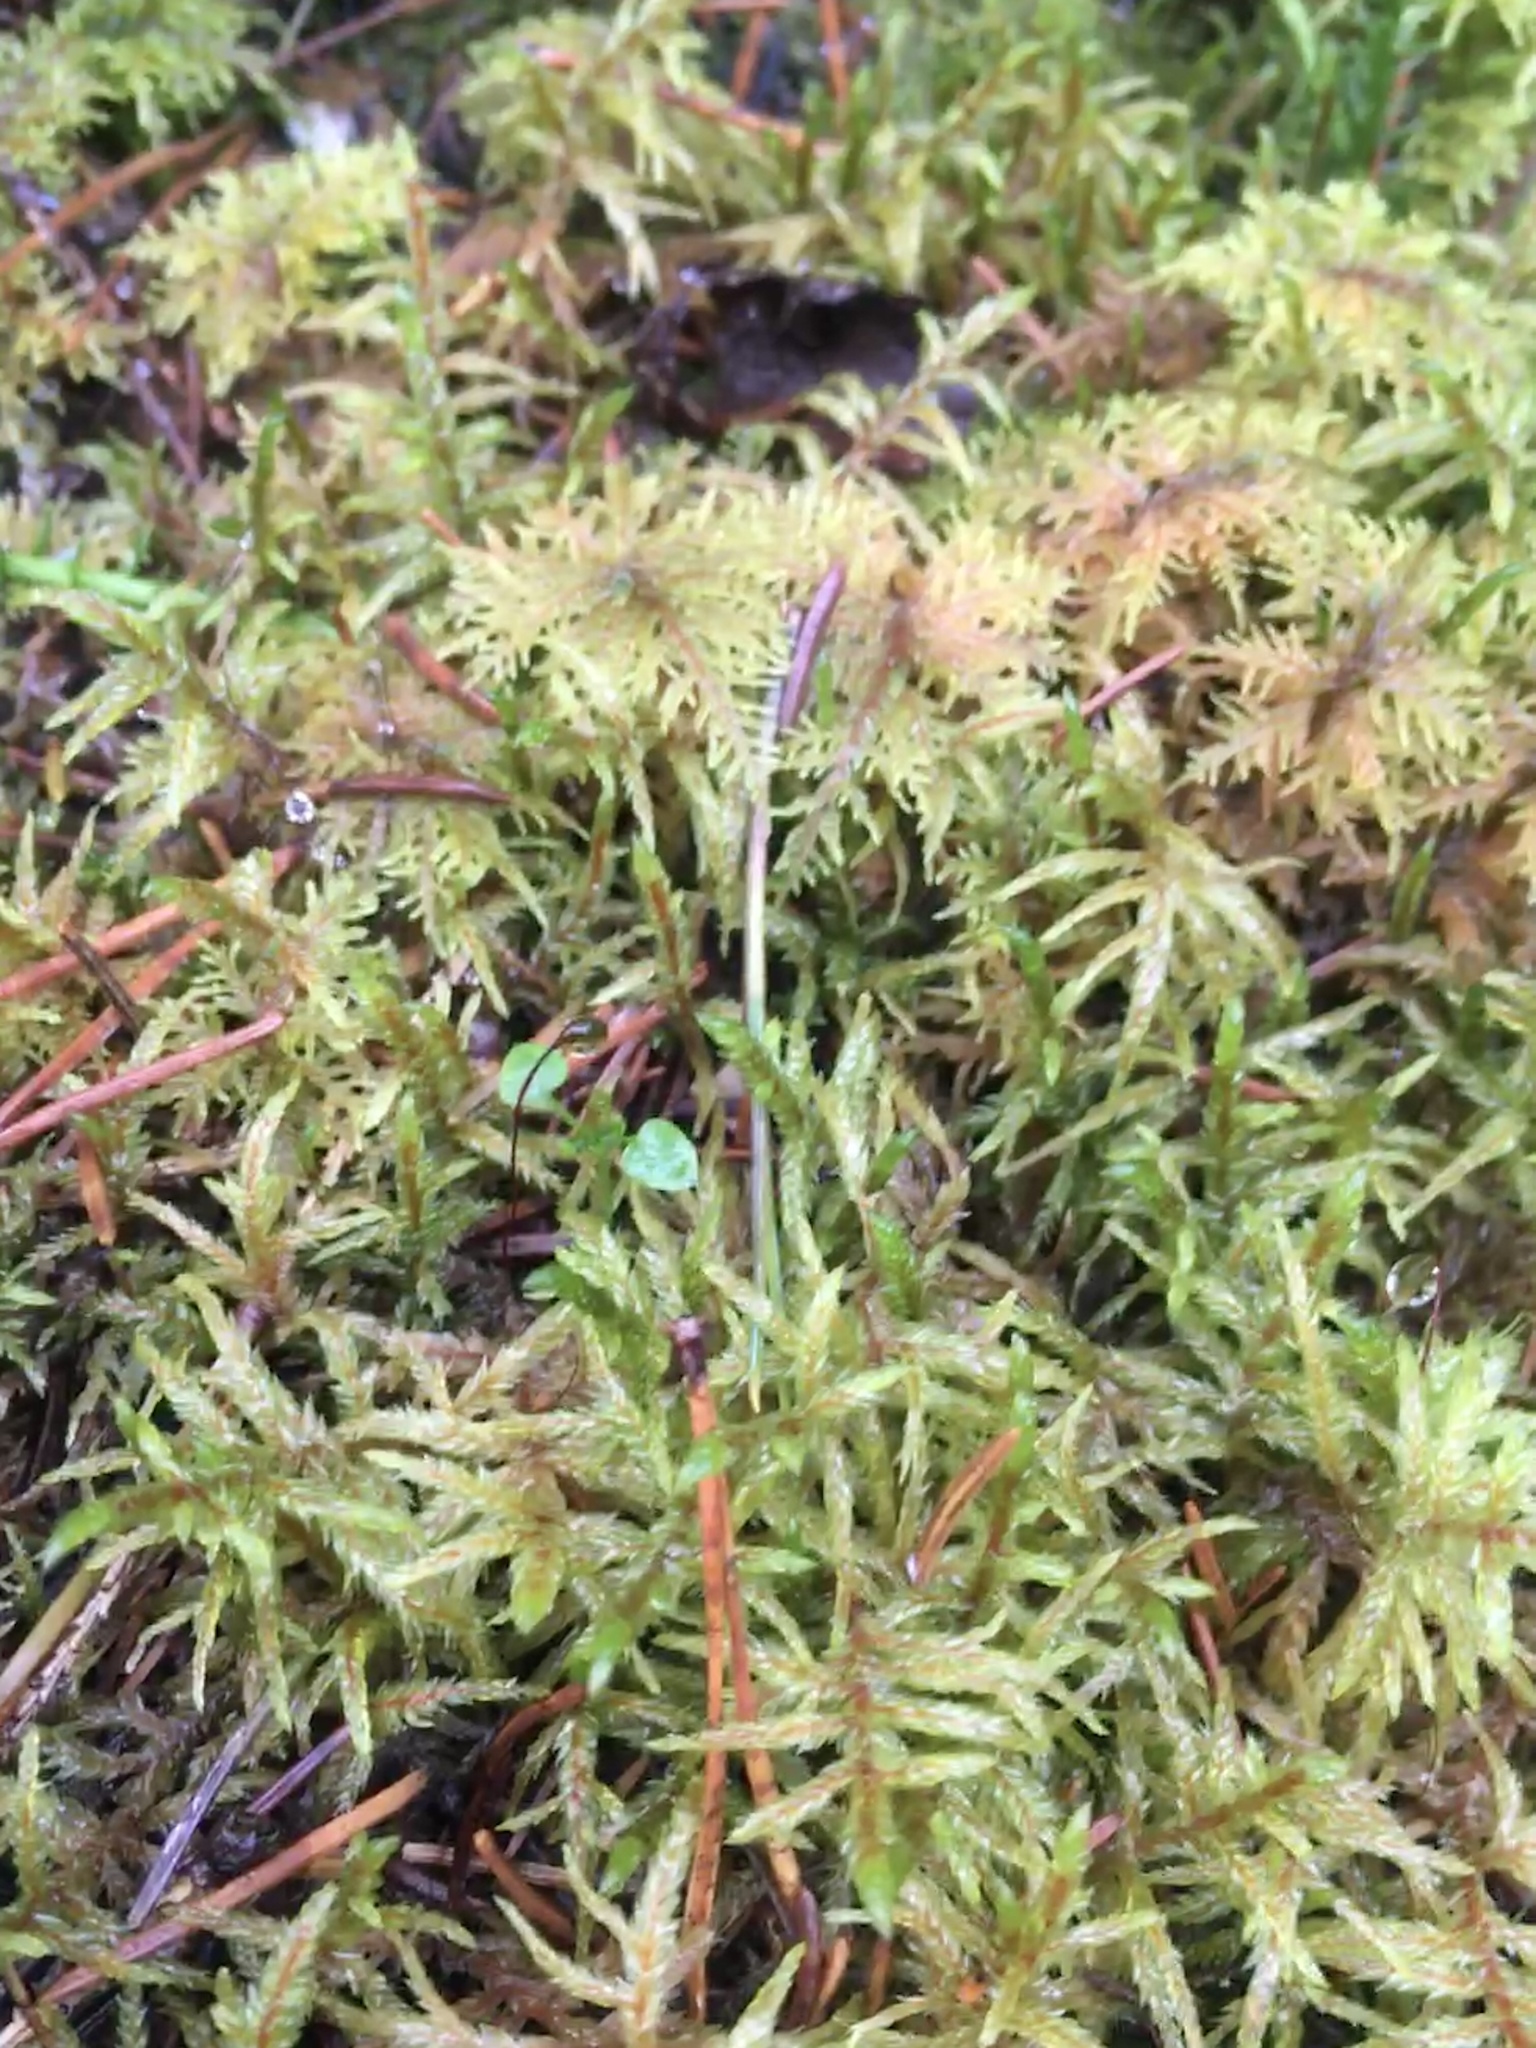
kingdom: Plantae
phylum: Bryophyta
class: Bryopsida
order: Hypnales
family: Hylocomiaceae
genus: Pleurozium
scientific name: Pleurozium schreberi
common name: Red-stemmed feather moss
